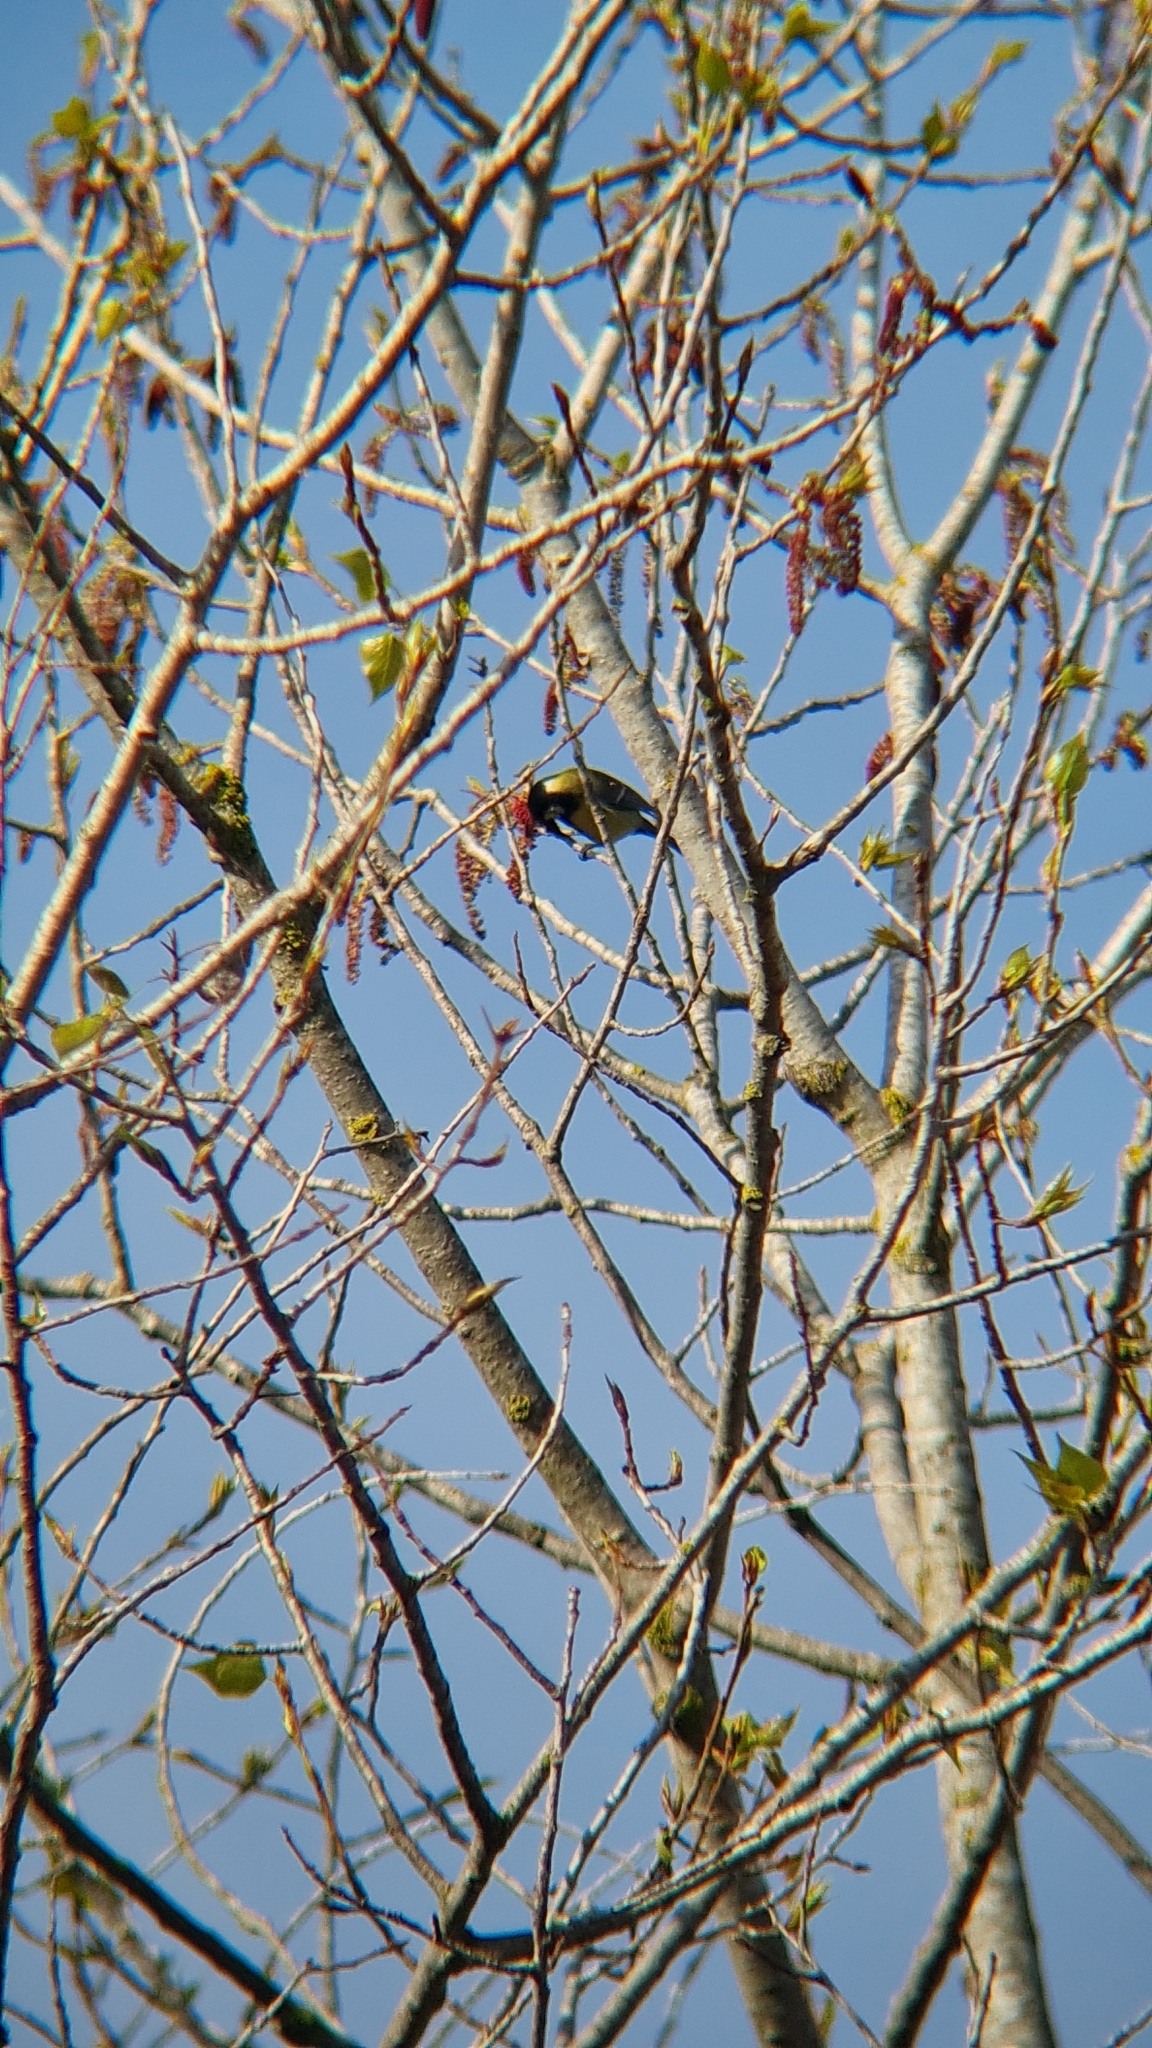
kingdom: Animalia
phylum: Chordata
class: Aves
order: Passeriformes
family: Paridae
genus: Parus
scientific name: Parus major
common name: Great tit
